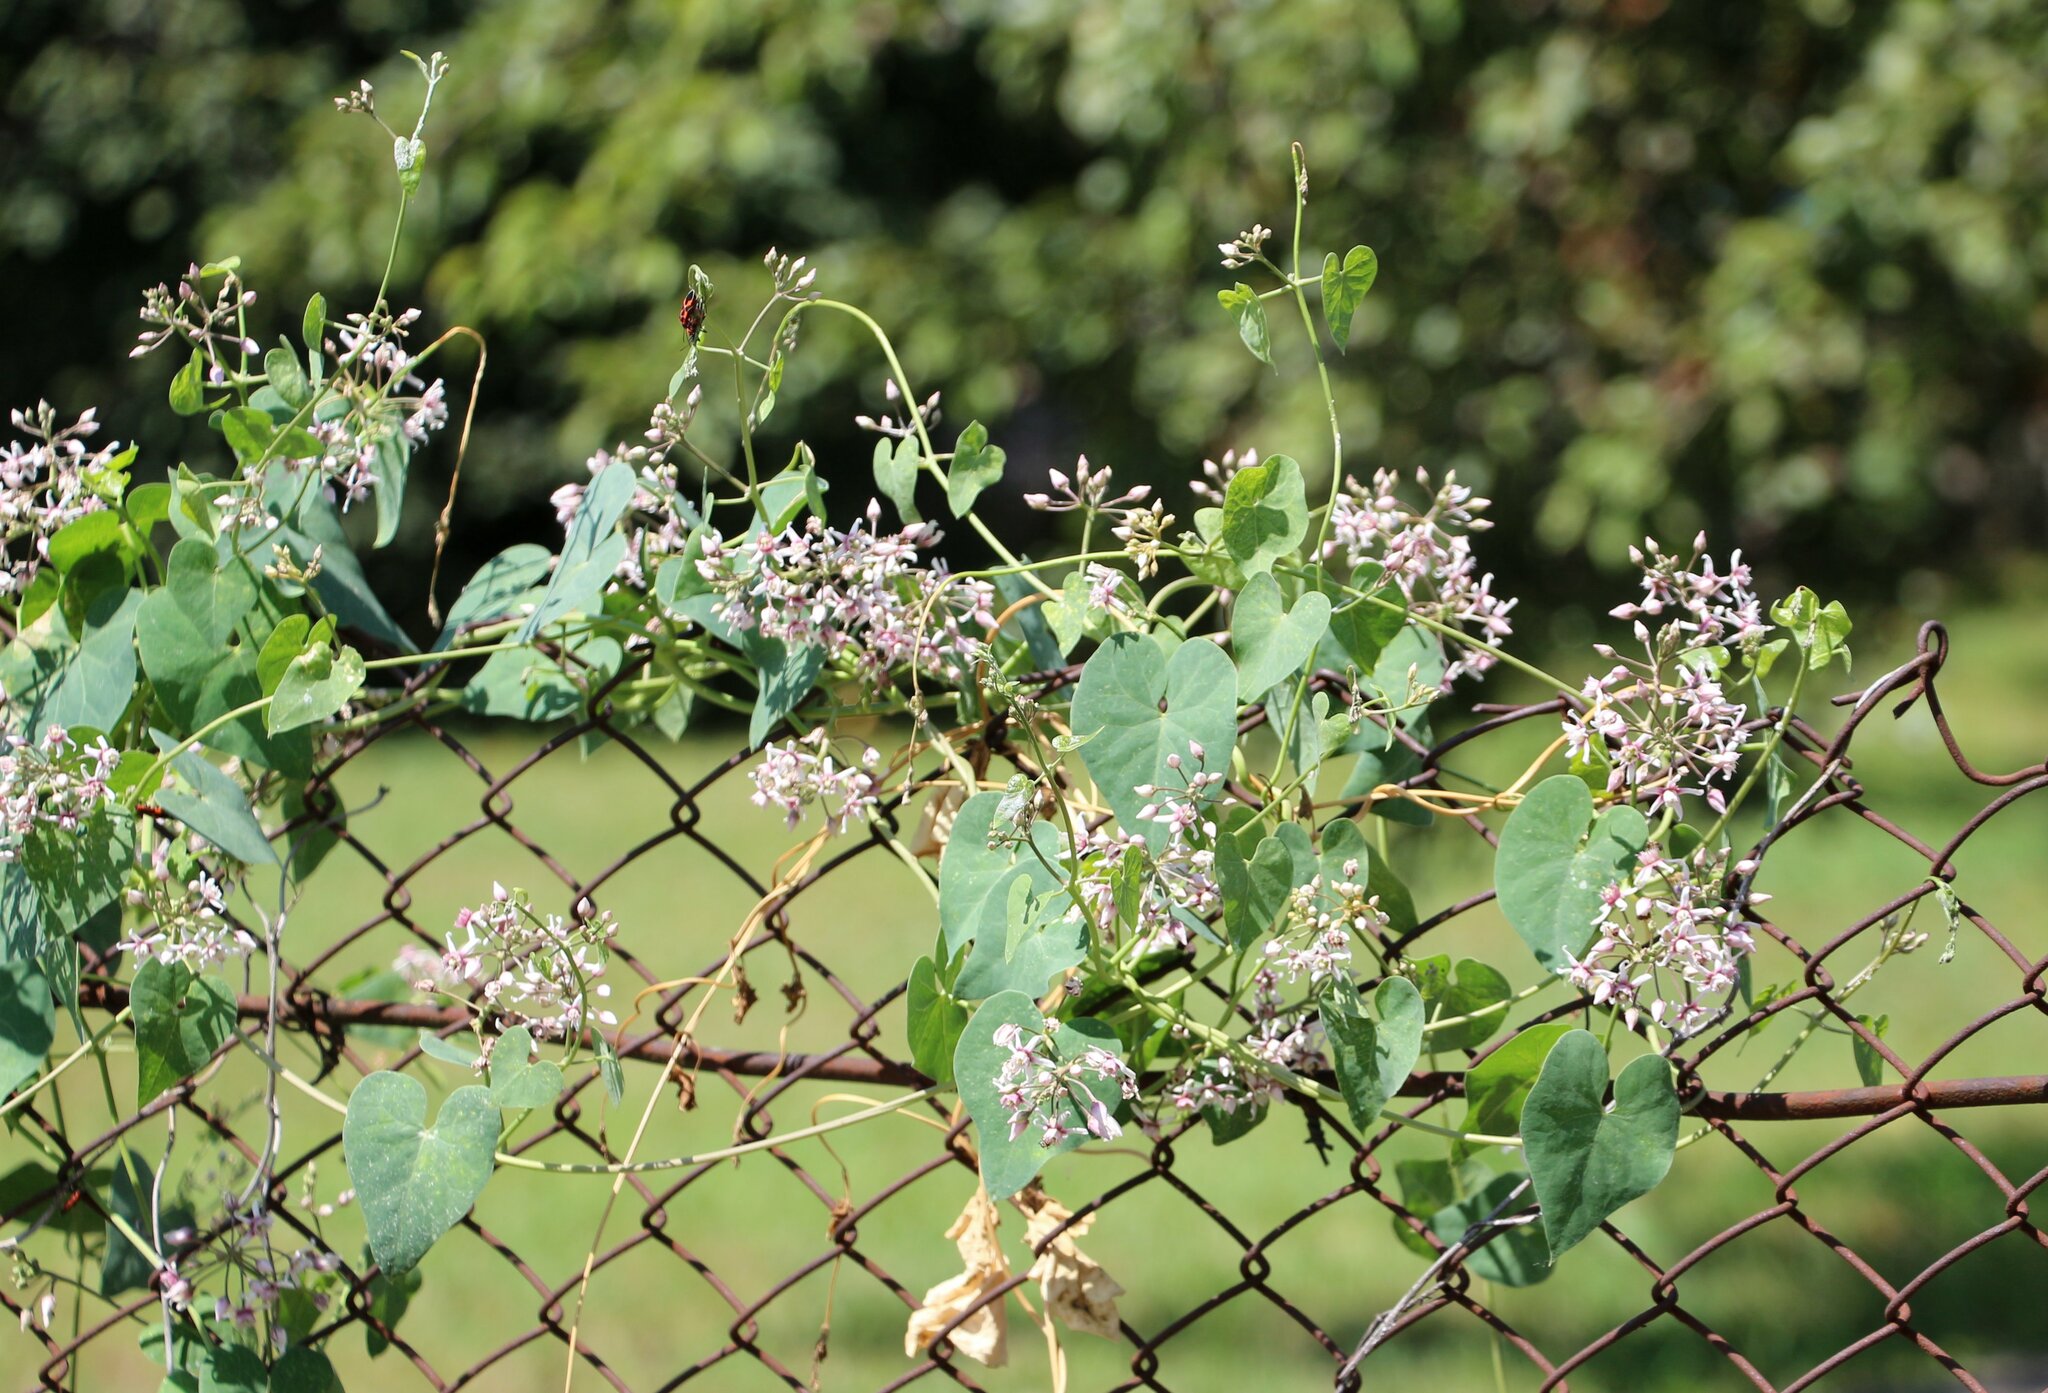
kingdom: Plantae
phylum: Tracheophyta
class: Magnoliopsida
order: Gentianales
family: Apocynaceae
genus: Cynanchum
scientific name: Cynanchum acutum
